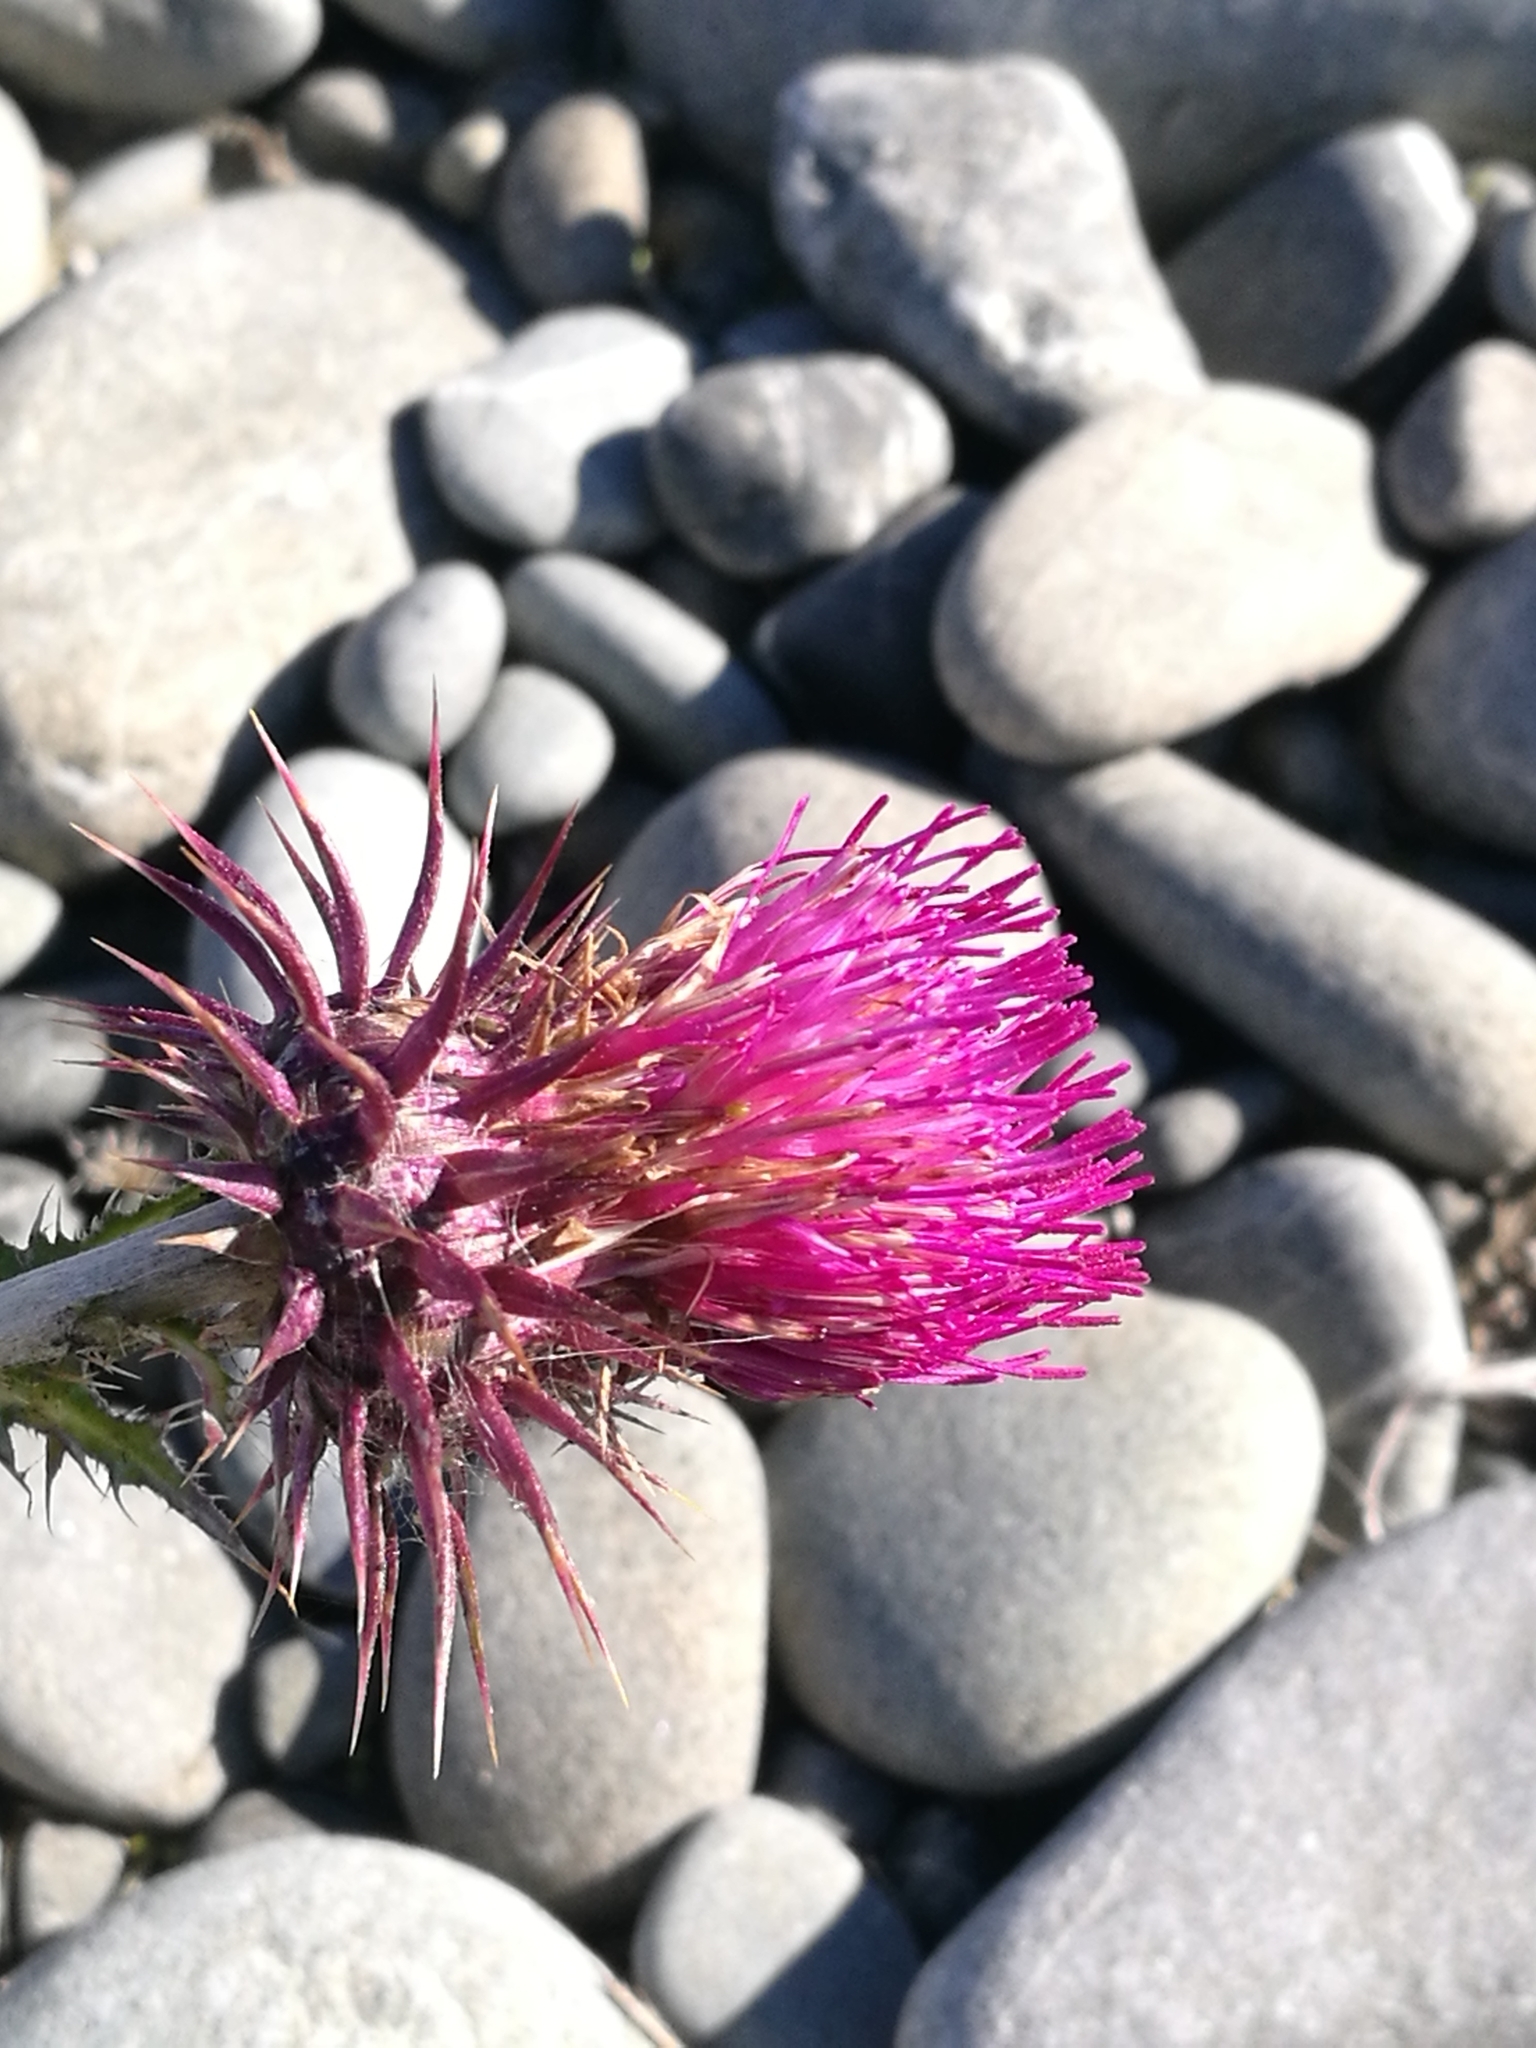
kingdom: Plantae
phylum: Tracheophyta
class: Magnoliopsida
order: Asterales
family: Asteraceae
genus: Carduus
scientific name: Carduus nutans
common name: Musk thistle
